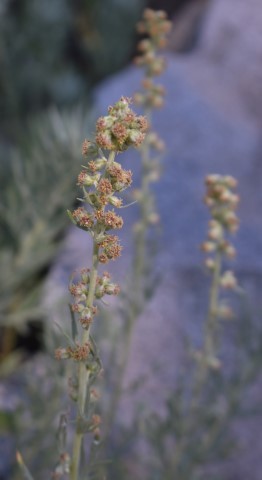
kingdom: Plantae
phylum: Tracheophyta
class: Magnoliopsida
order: Asterales
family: Asteraceae
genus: Artemisia
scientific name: Artemisia frigida
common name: Prairie sagewort
